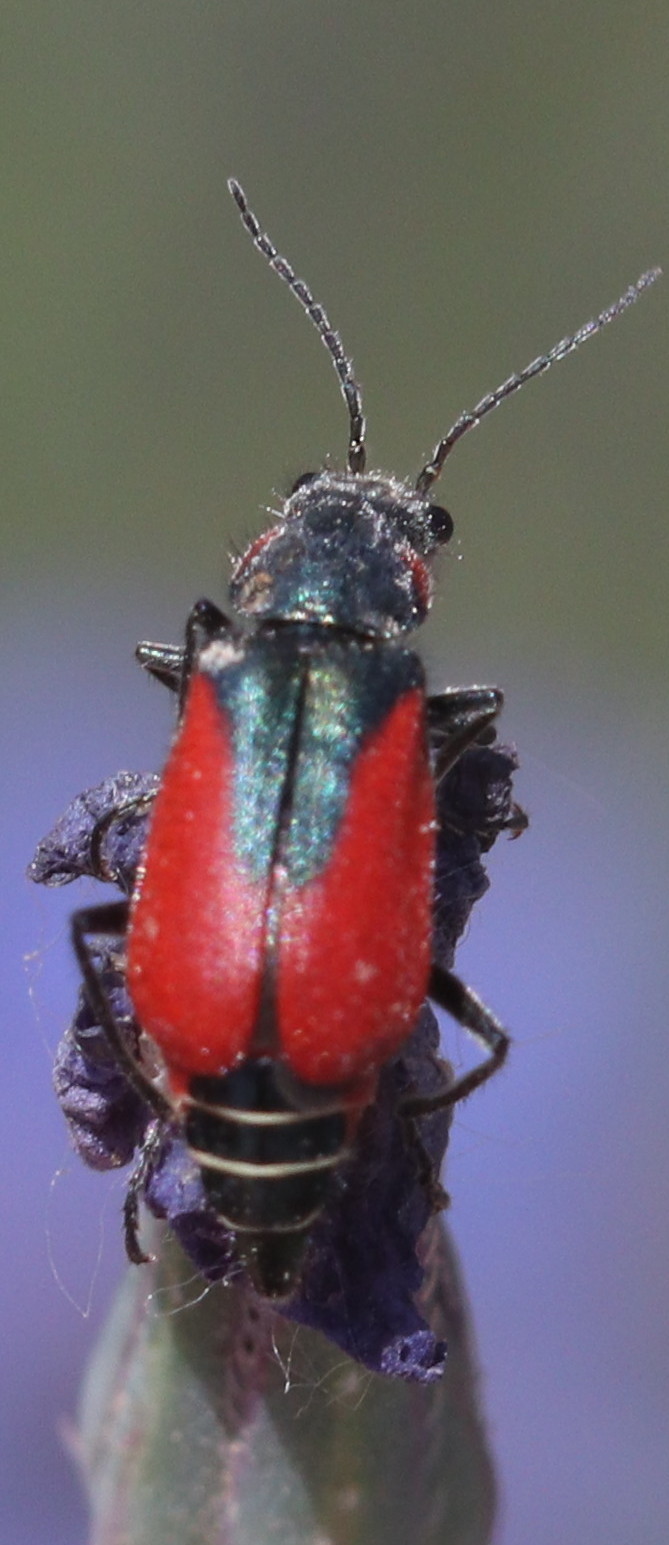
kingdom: Animalia
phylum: Arthropoda
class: Insecta
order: Coleoptera
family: Melyridae
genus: Malachius
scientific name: Malachius aeneus
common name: Scarlet malachite beetle
